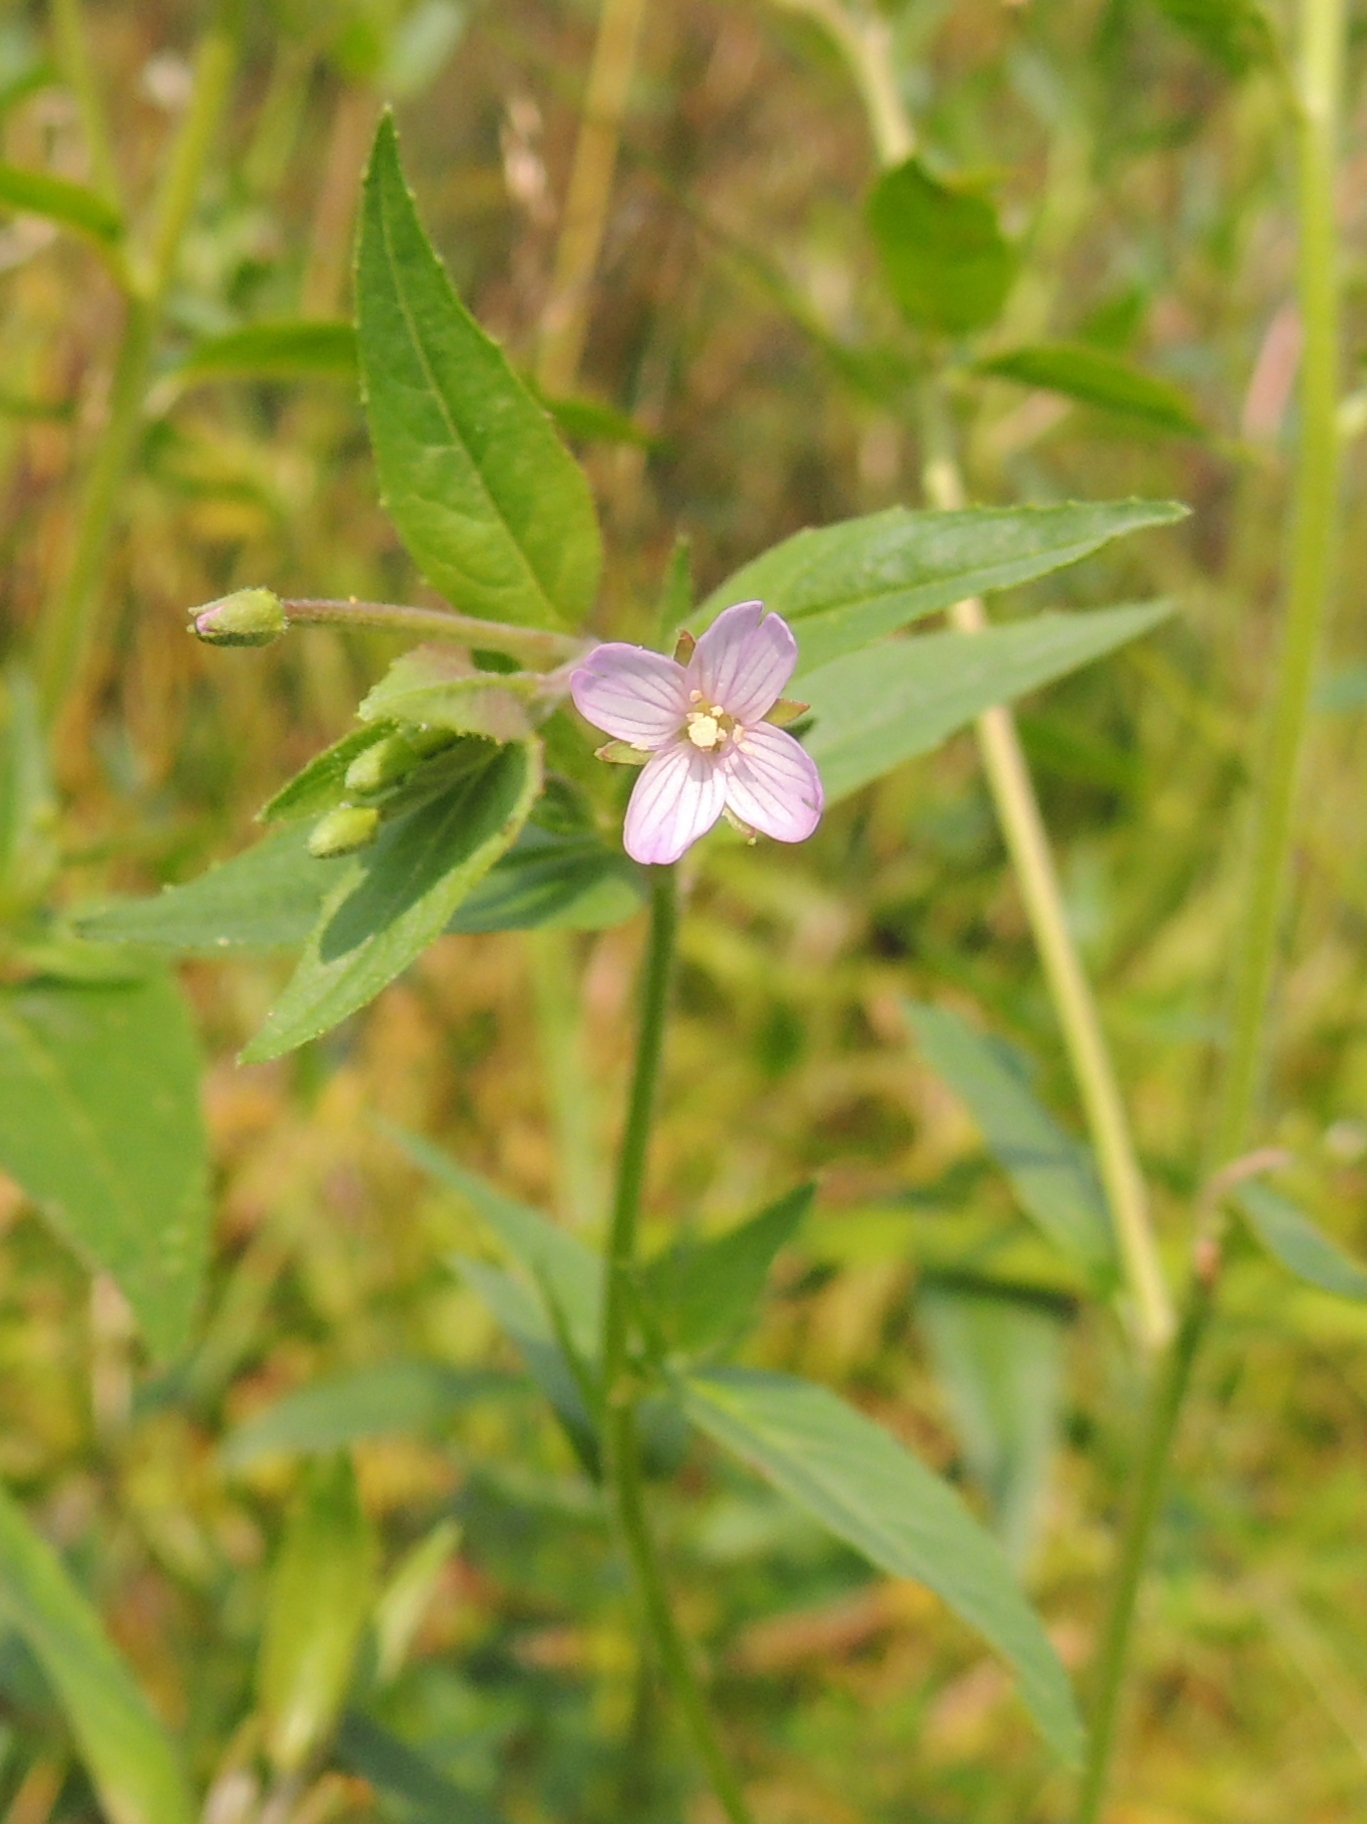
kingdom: Plantae
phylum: Tracheophyta
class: Magnoliopsida
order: Myrtales
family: Onagraceae
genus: Epilobium
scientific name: Epilobium ciliatum
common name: American willowherb
